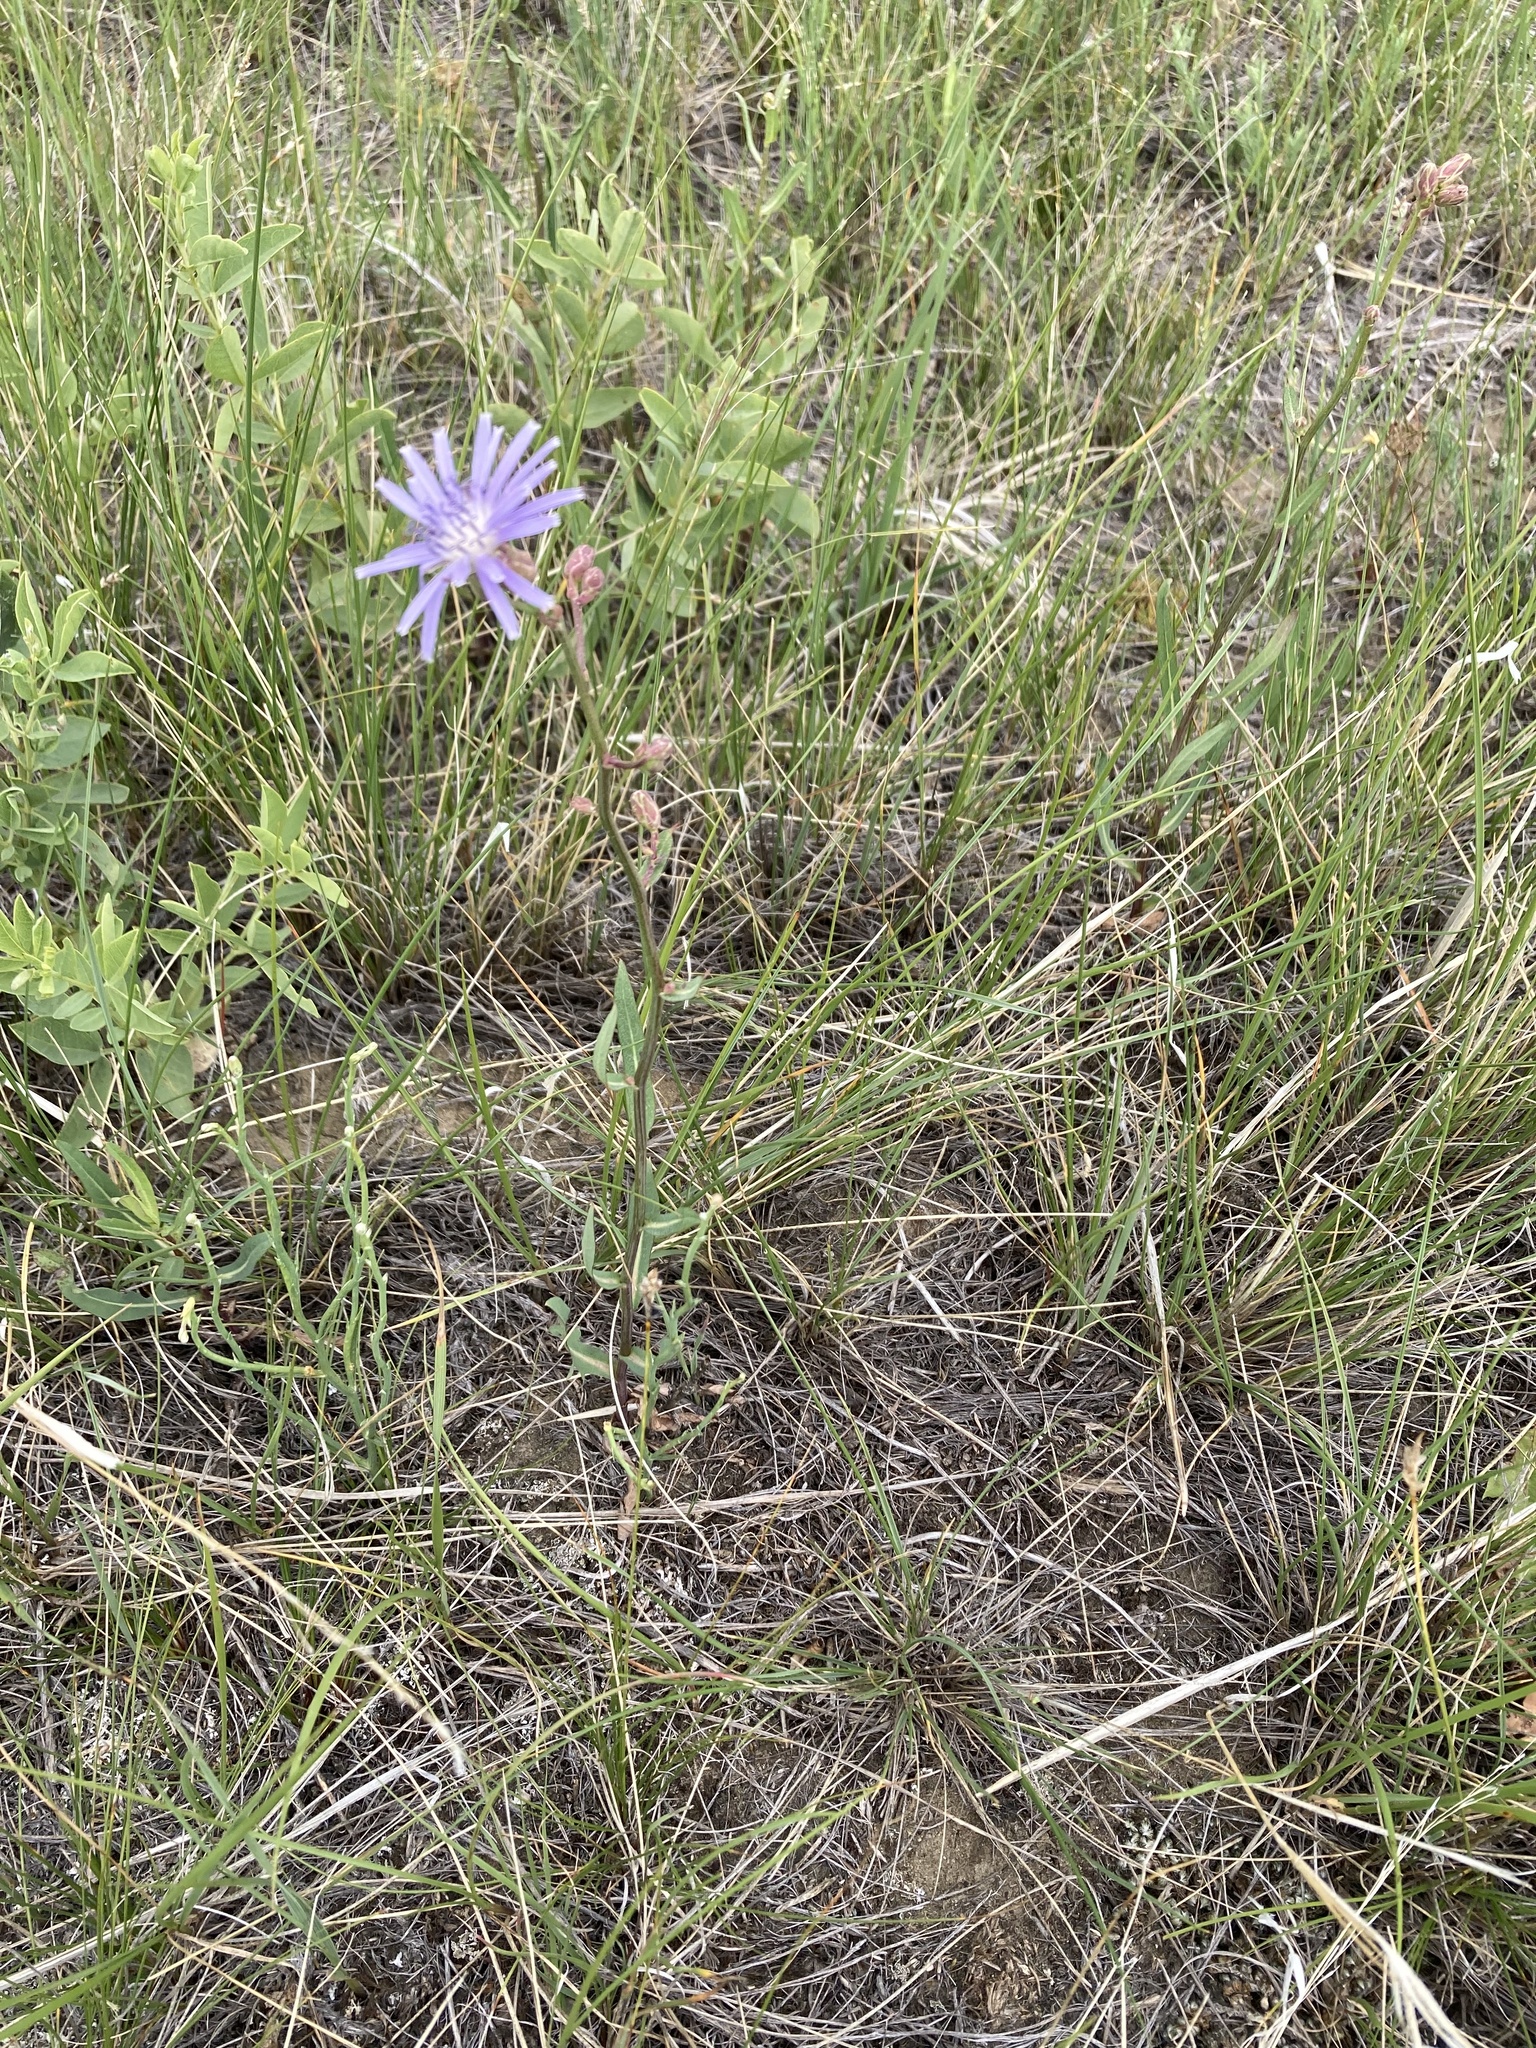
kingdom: Plantae
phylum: Tracheophyta
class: Magnoliopsida
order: Asterales
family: Asteraceae
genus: Lactuca
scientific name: Lactuca pulchella
